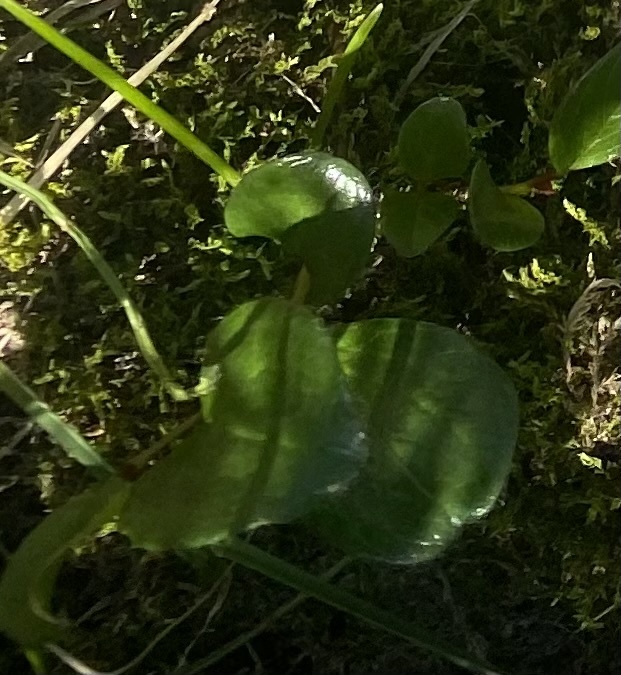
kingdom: Plantae
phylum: Tracheophyta
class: Magnoliopsida
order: Malpighiales
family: Salicaceae
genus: Salix
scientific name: Salix polaris
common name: Polar willow
